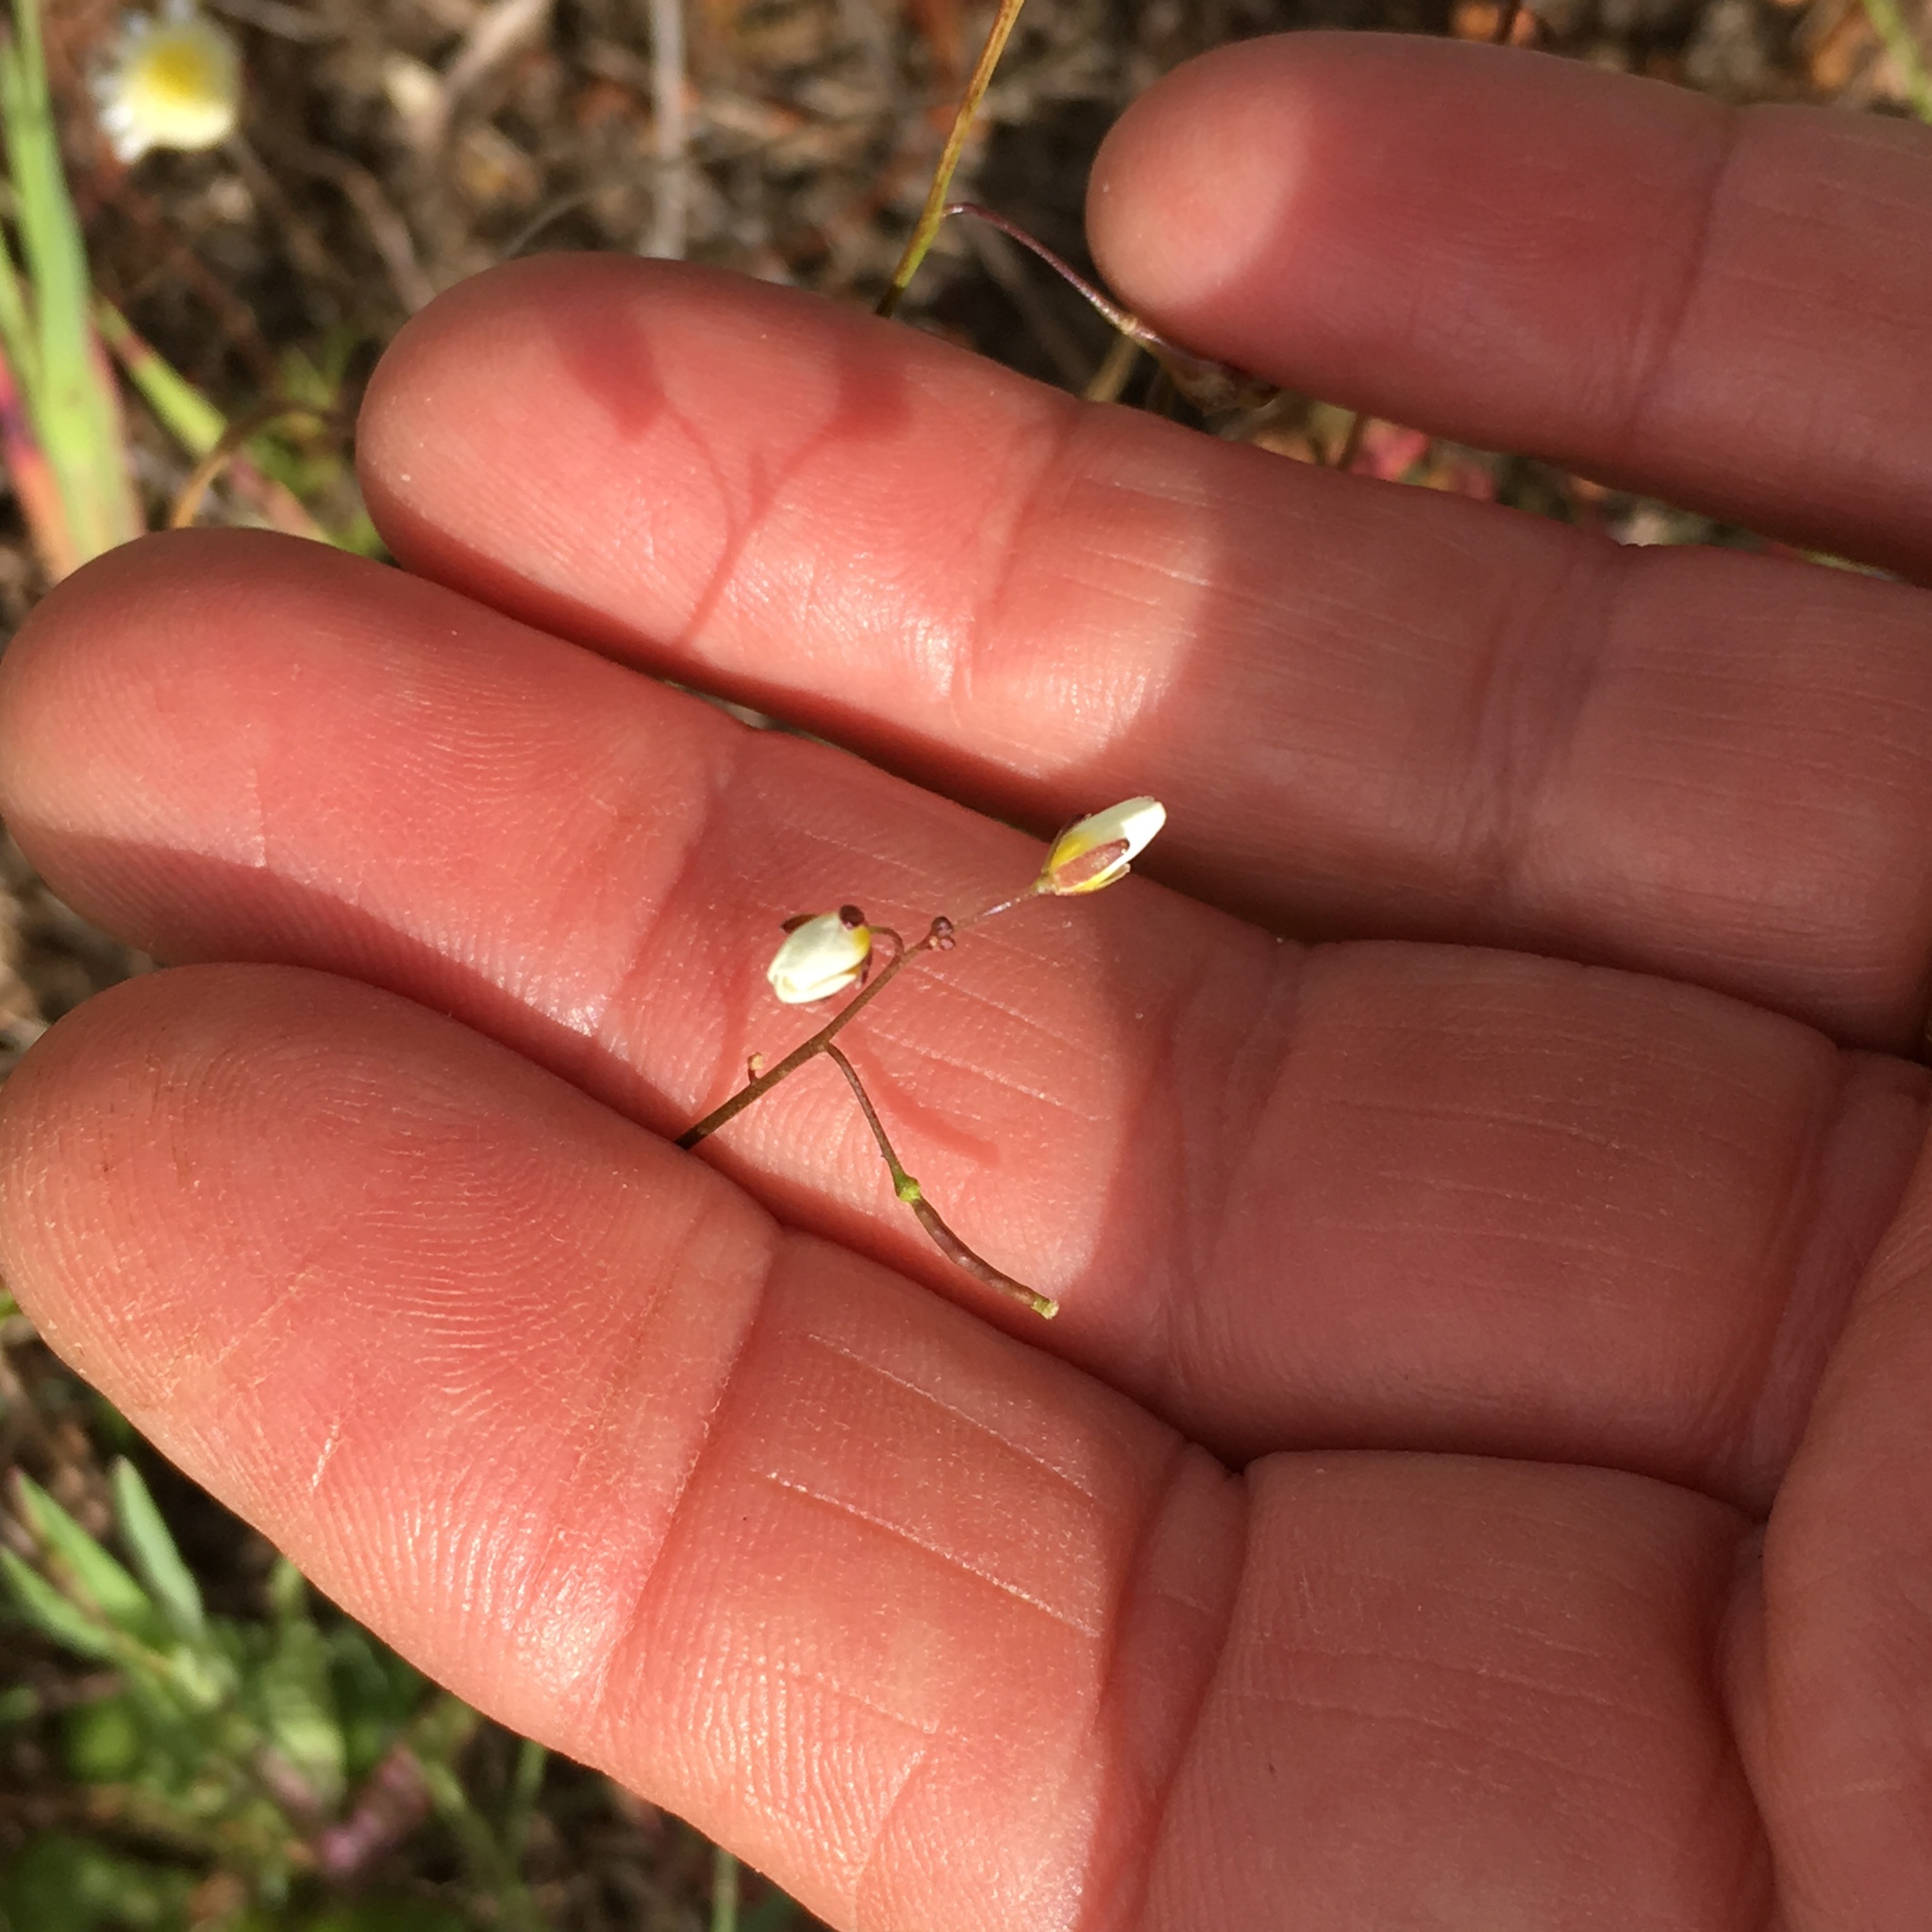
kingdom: Plantae
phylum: Tracheophyta
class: Magnoliopsida
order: Brassicales
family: Brassicaceae
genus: Heliophila
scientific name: Heliophila pendula
